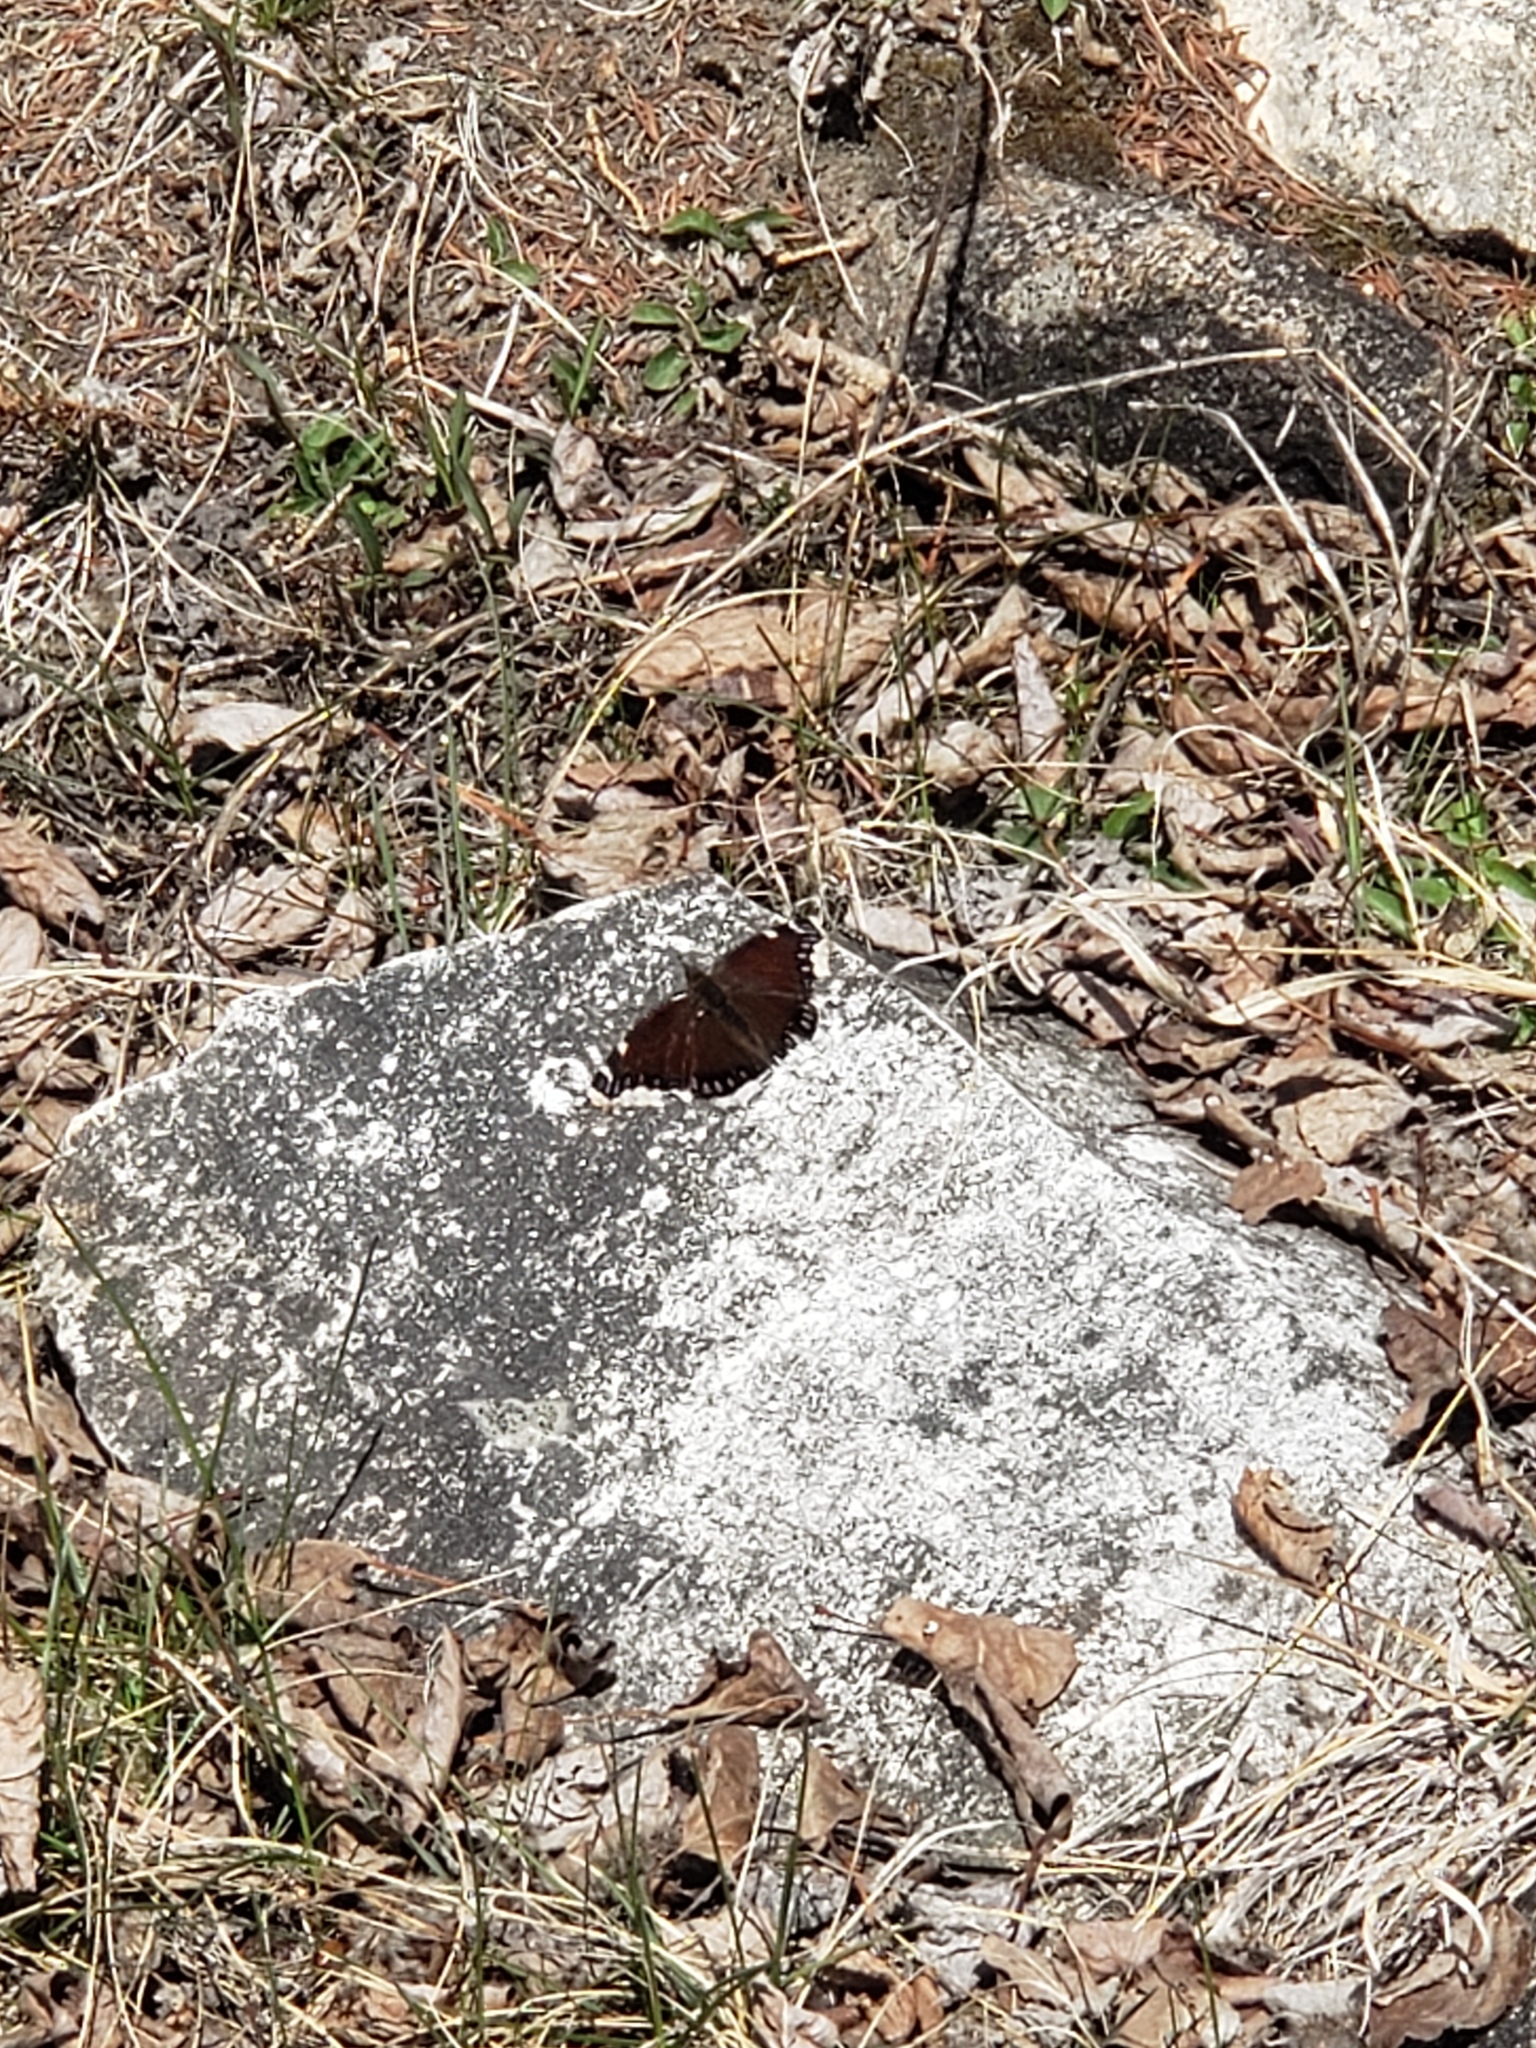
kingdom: Animalia
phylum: Arthropoda
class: Insecta
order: Lepidoptera
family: Nymphalidae
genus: Nymphalis
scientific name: Nymphalis antiopa
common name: Camberwell beauty
